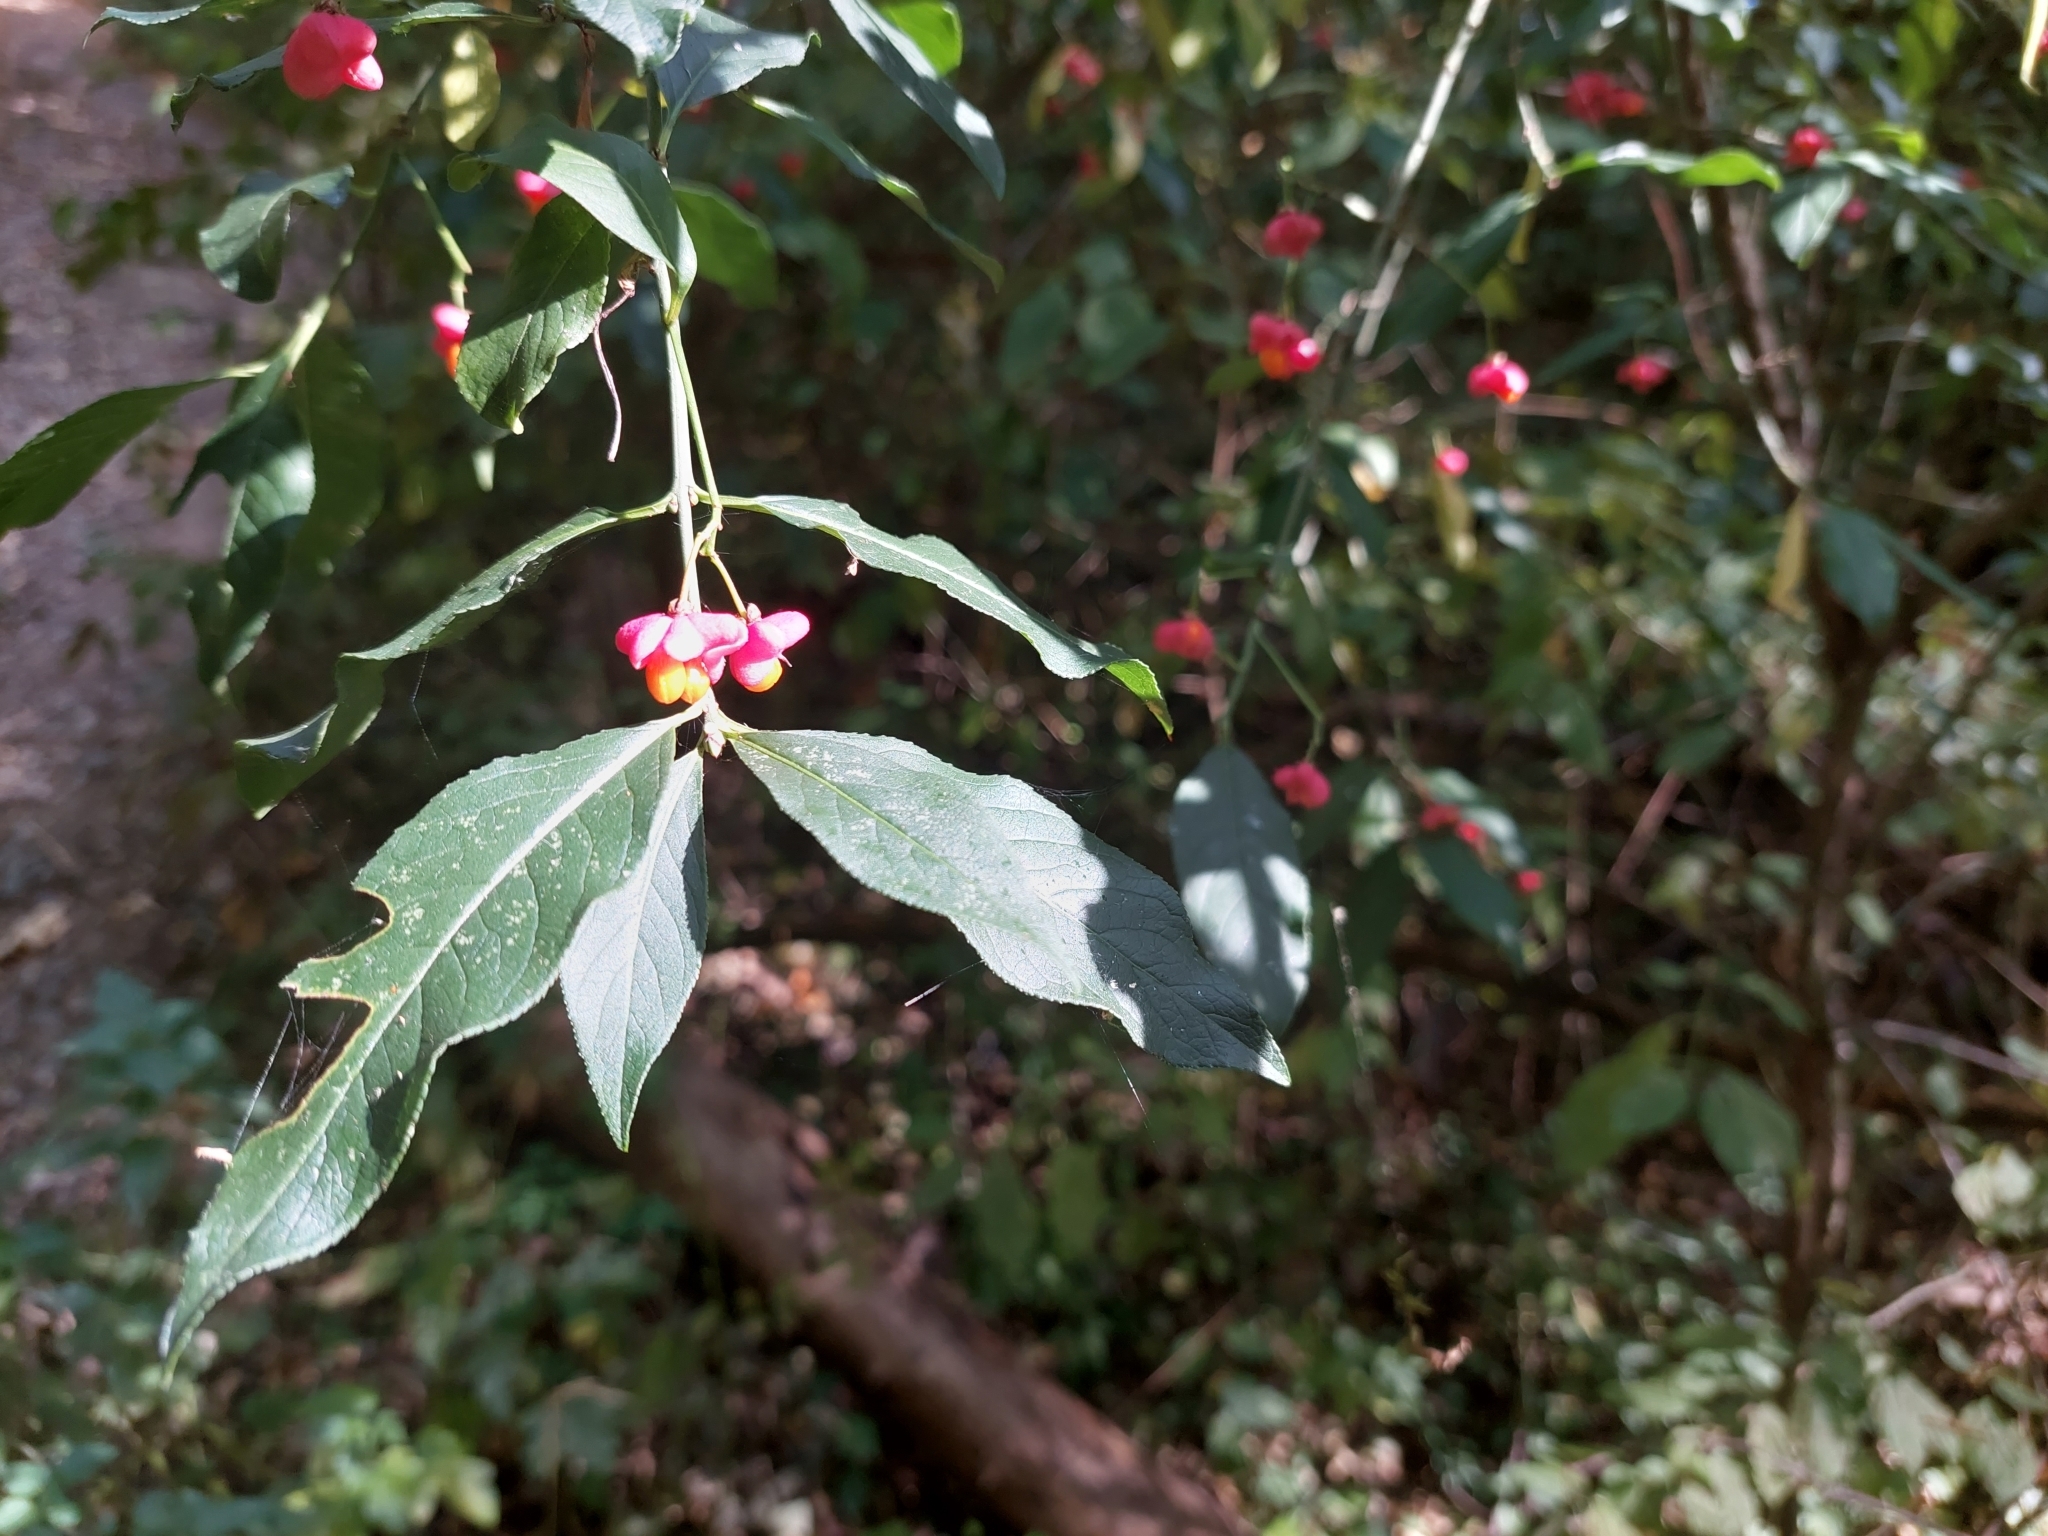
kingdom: Plantae
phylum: Tracheophyta
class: Magnoliopsida
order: Celastrales
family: Celastraceae
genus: Euonymus
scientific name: Euonymus europaeus
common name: Spindle
